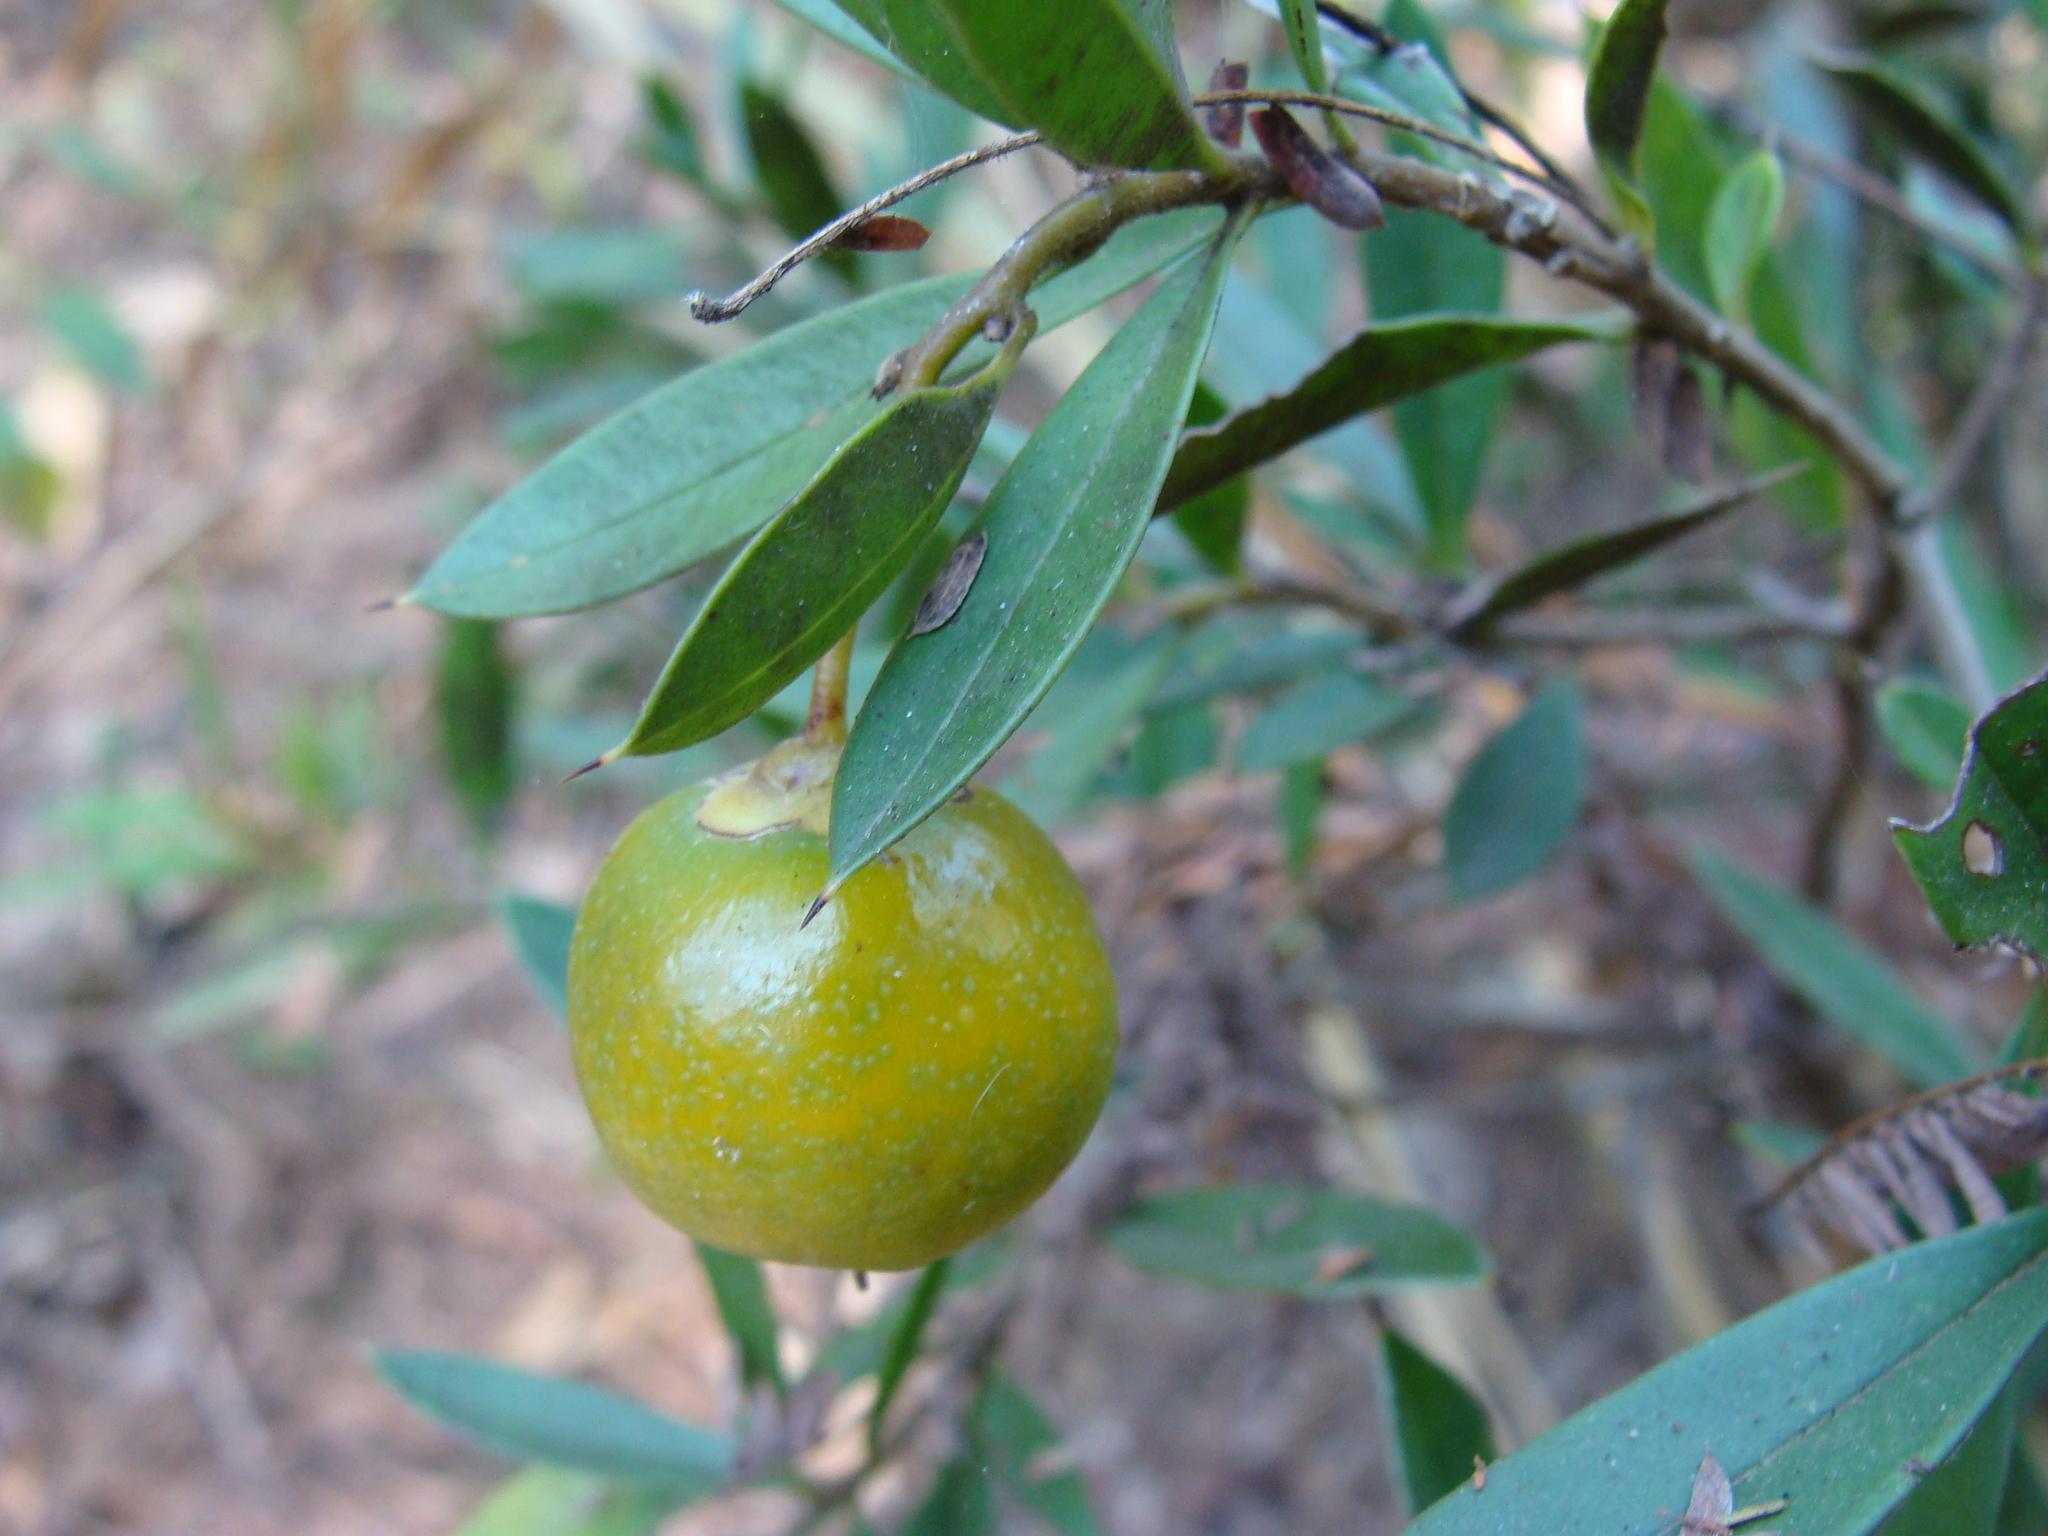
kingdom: Plantae
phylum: Tracheophyta
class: Magnoliopsida
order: Ericales
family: Primulaceae
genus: Bonellia
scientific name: Bonellia macrocarpa
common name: Primrose
